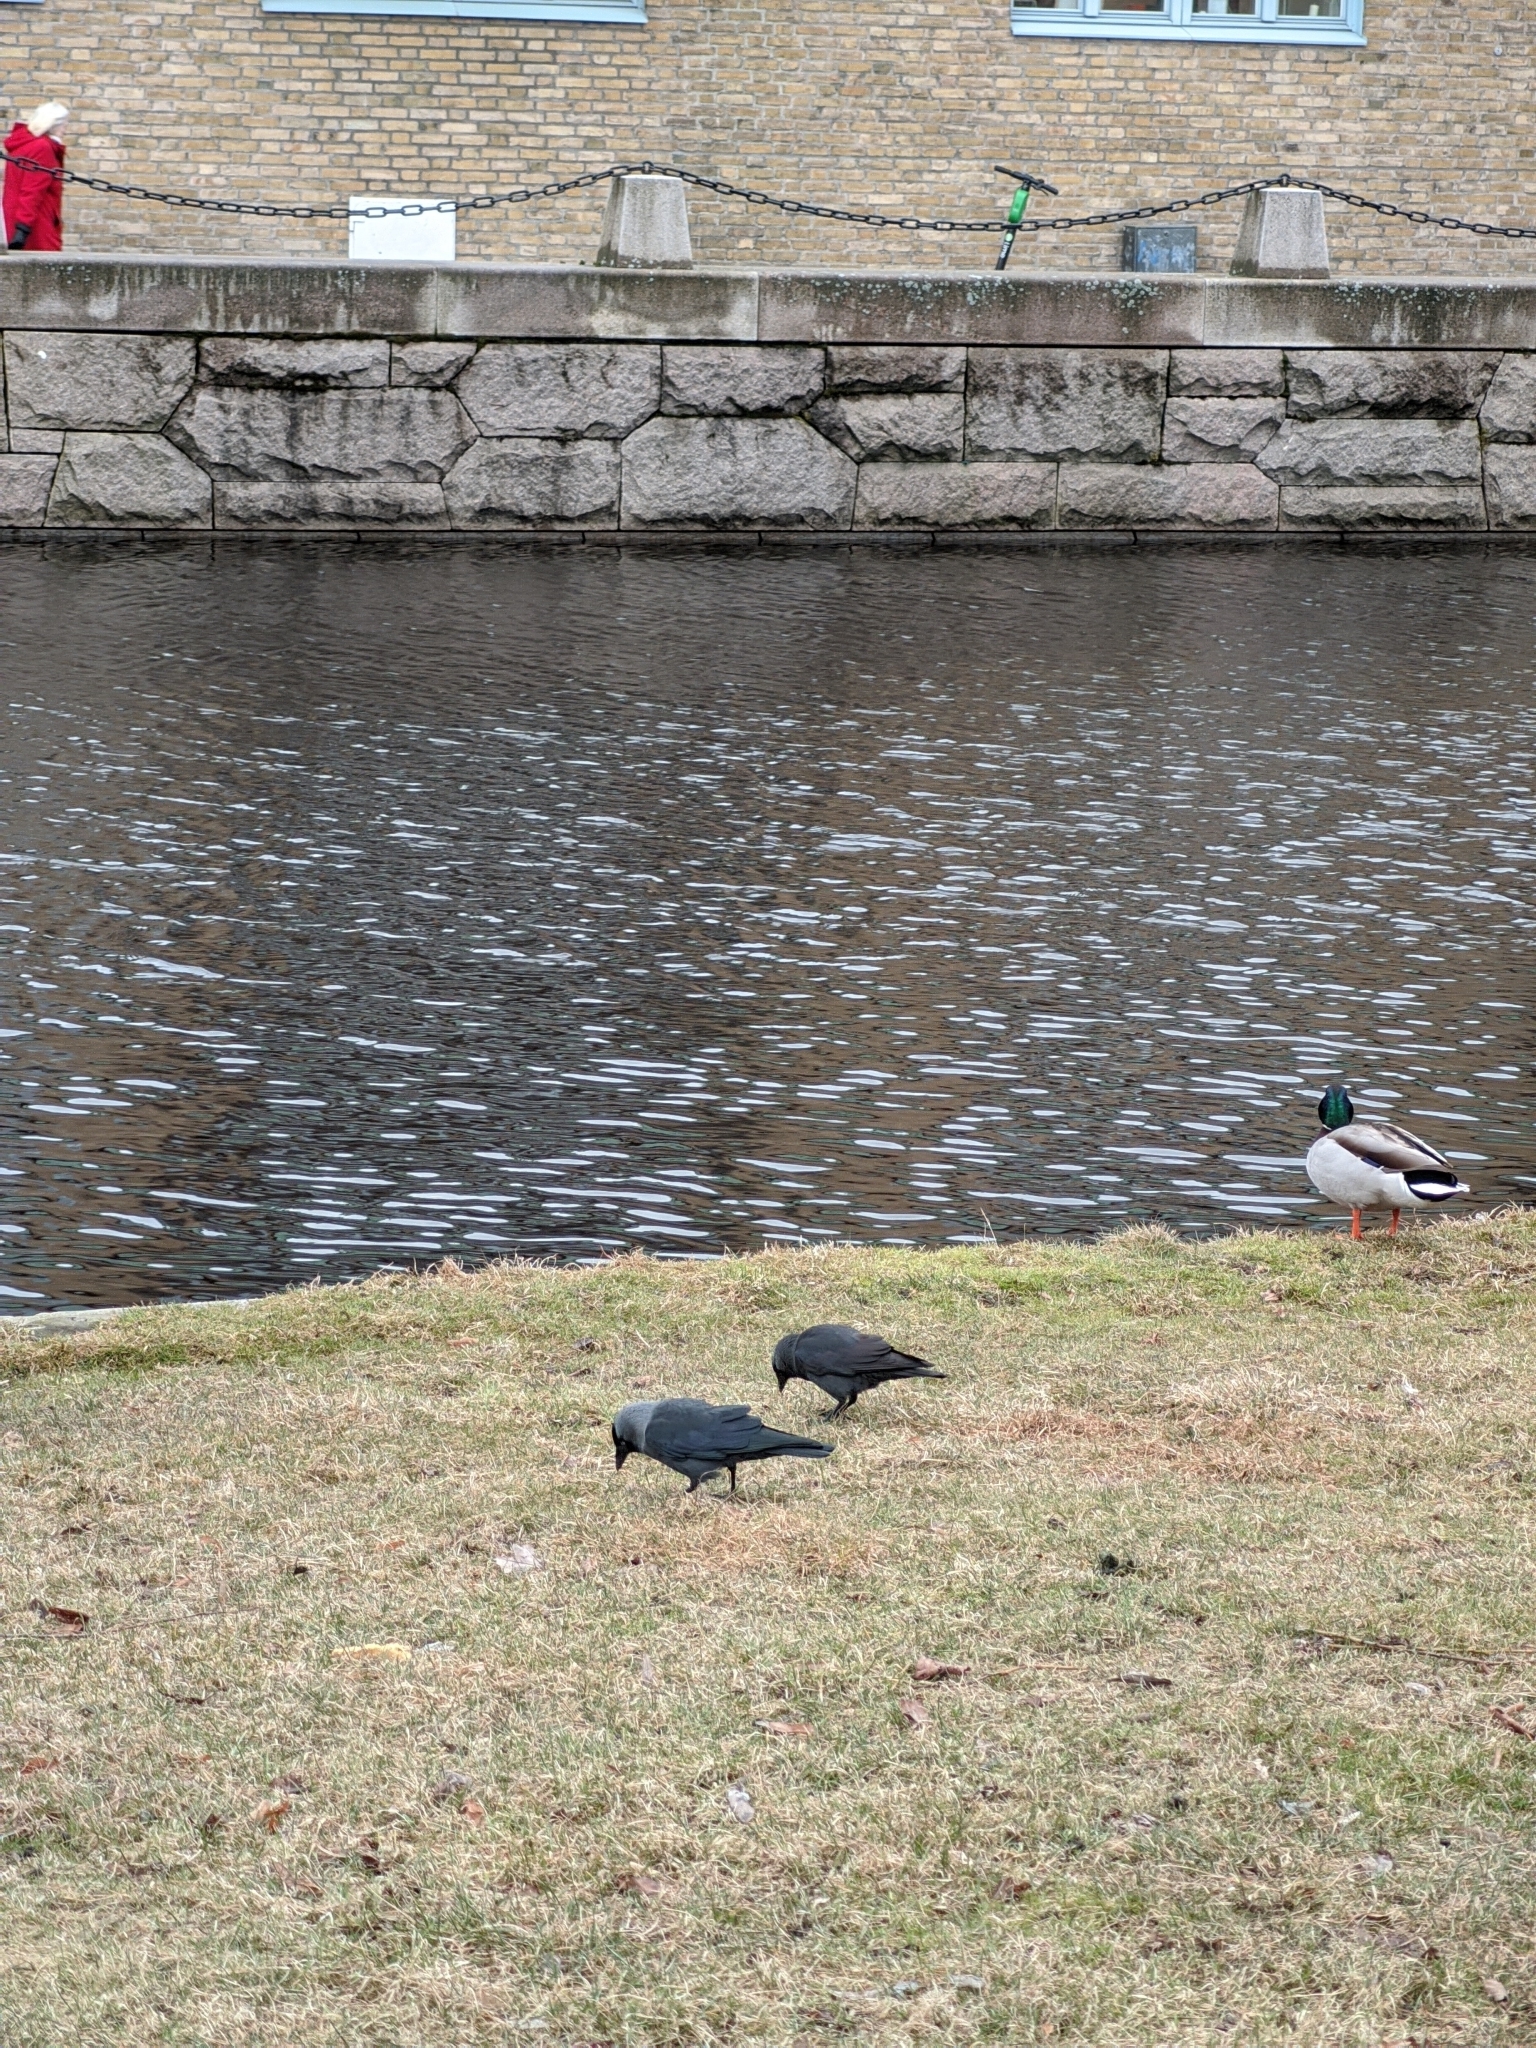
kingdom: Animalia
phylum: Chordata
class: Aves
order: Passeriformes
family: Corvidae
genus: Coloeus
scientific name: Coloeus monedula
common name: Western jackdaw
